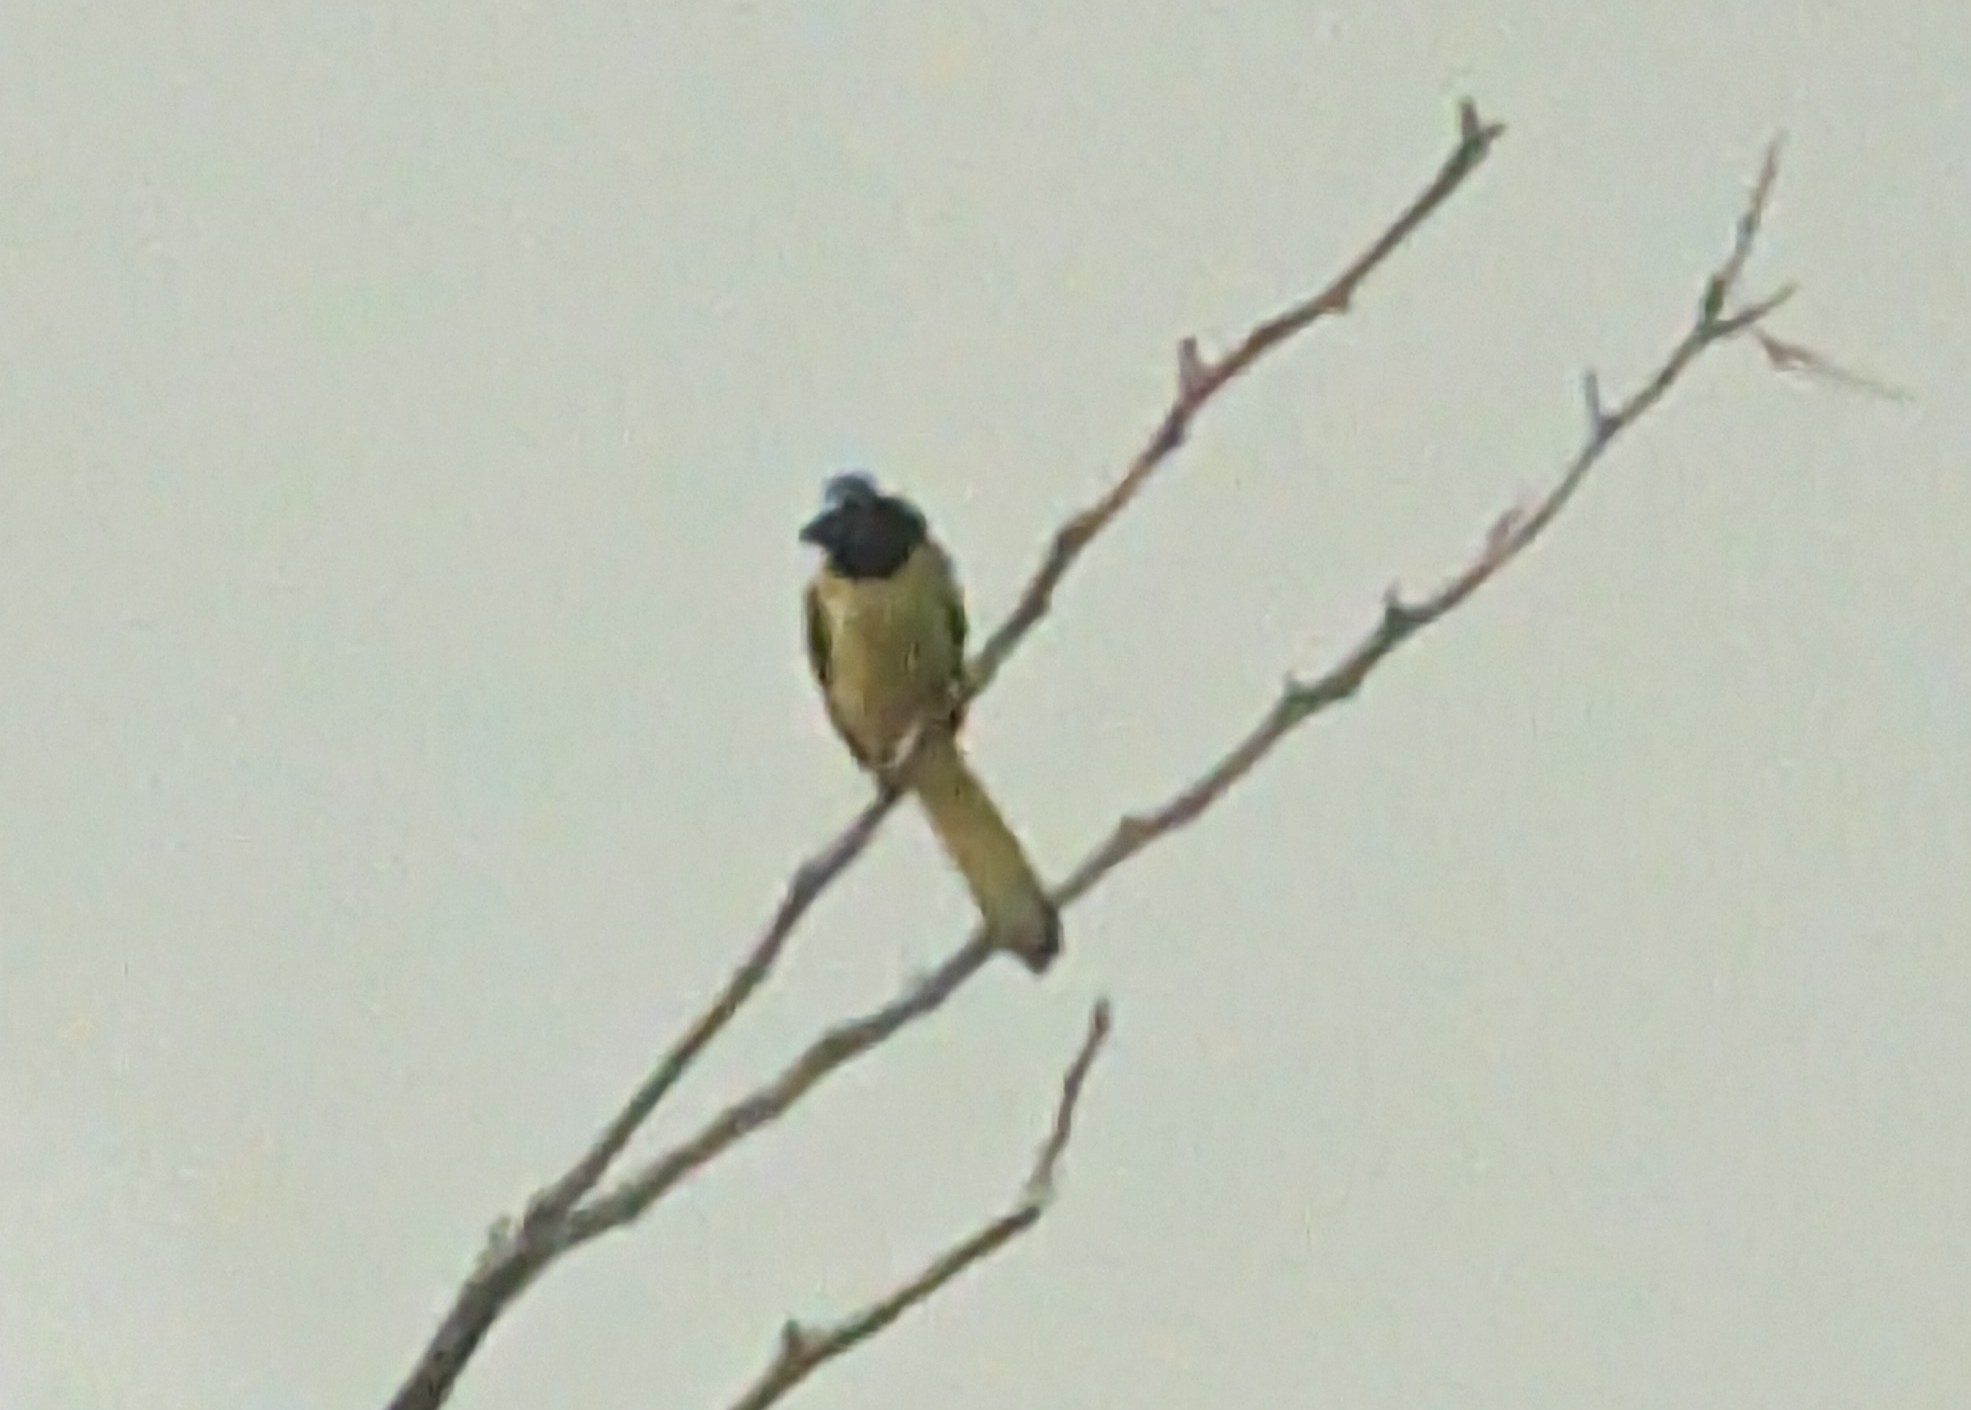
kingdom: Animalia
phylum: Chordata
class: Aves
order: Passeriformes
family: Corvidae
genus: Cyanocorax
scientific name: Cyanocorax yncas
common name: Green jay
